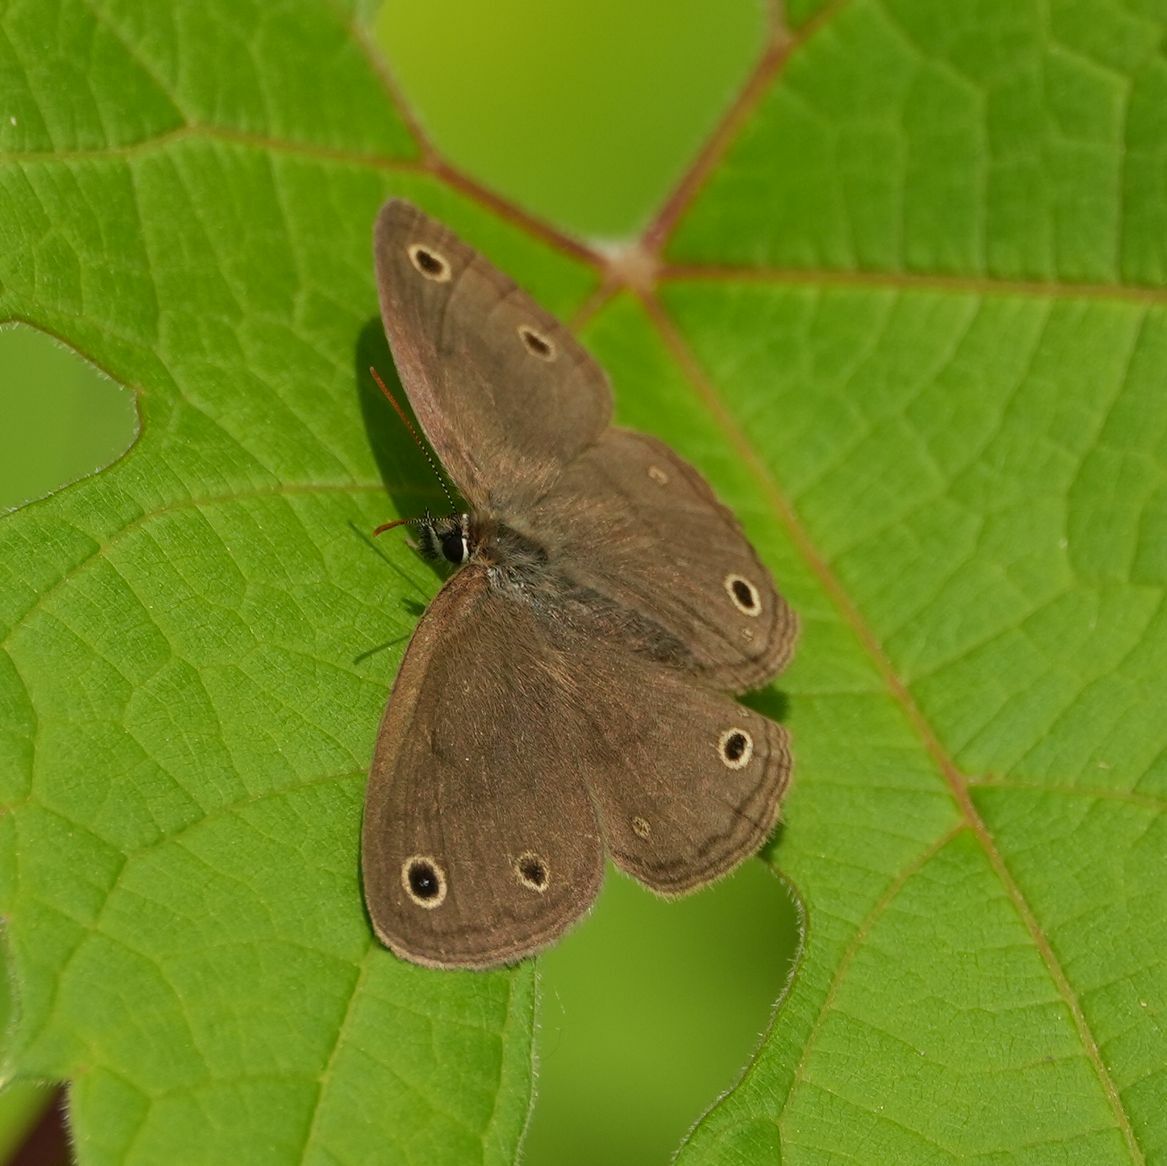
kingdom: Animalia
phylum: Arthropoda
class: Insecta
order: Lepidoptera
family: Nymphalidae
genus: Euptychia
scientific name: Euptychia cymela
